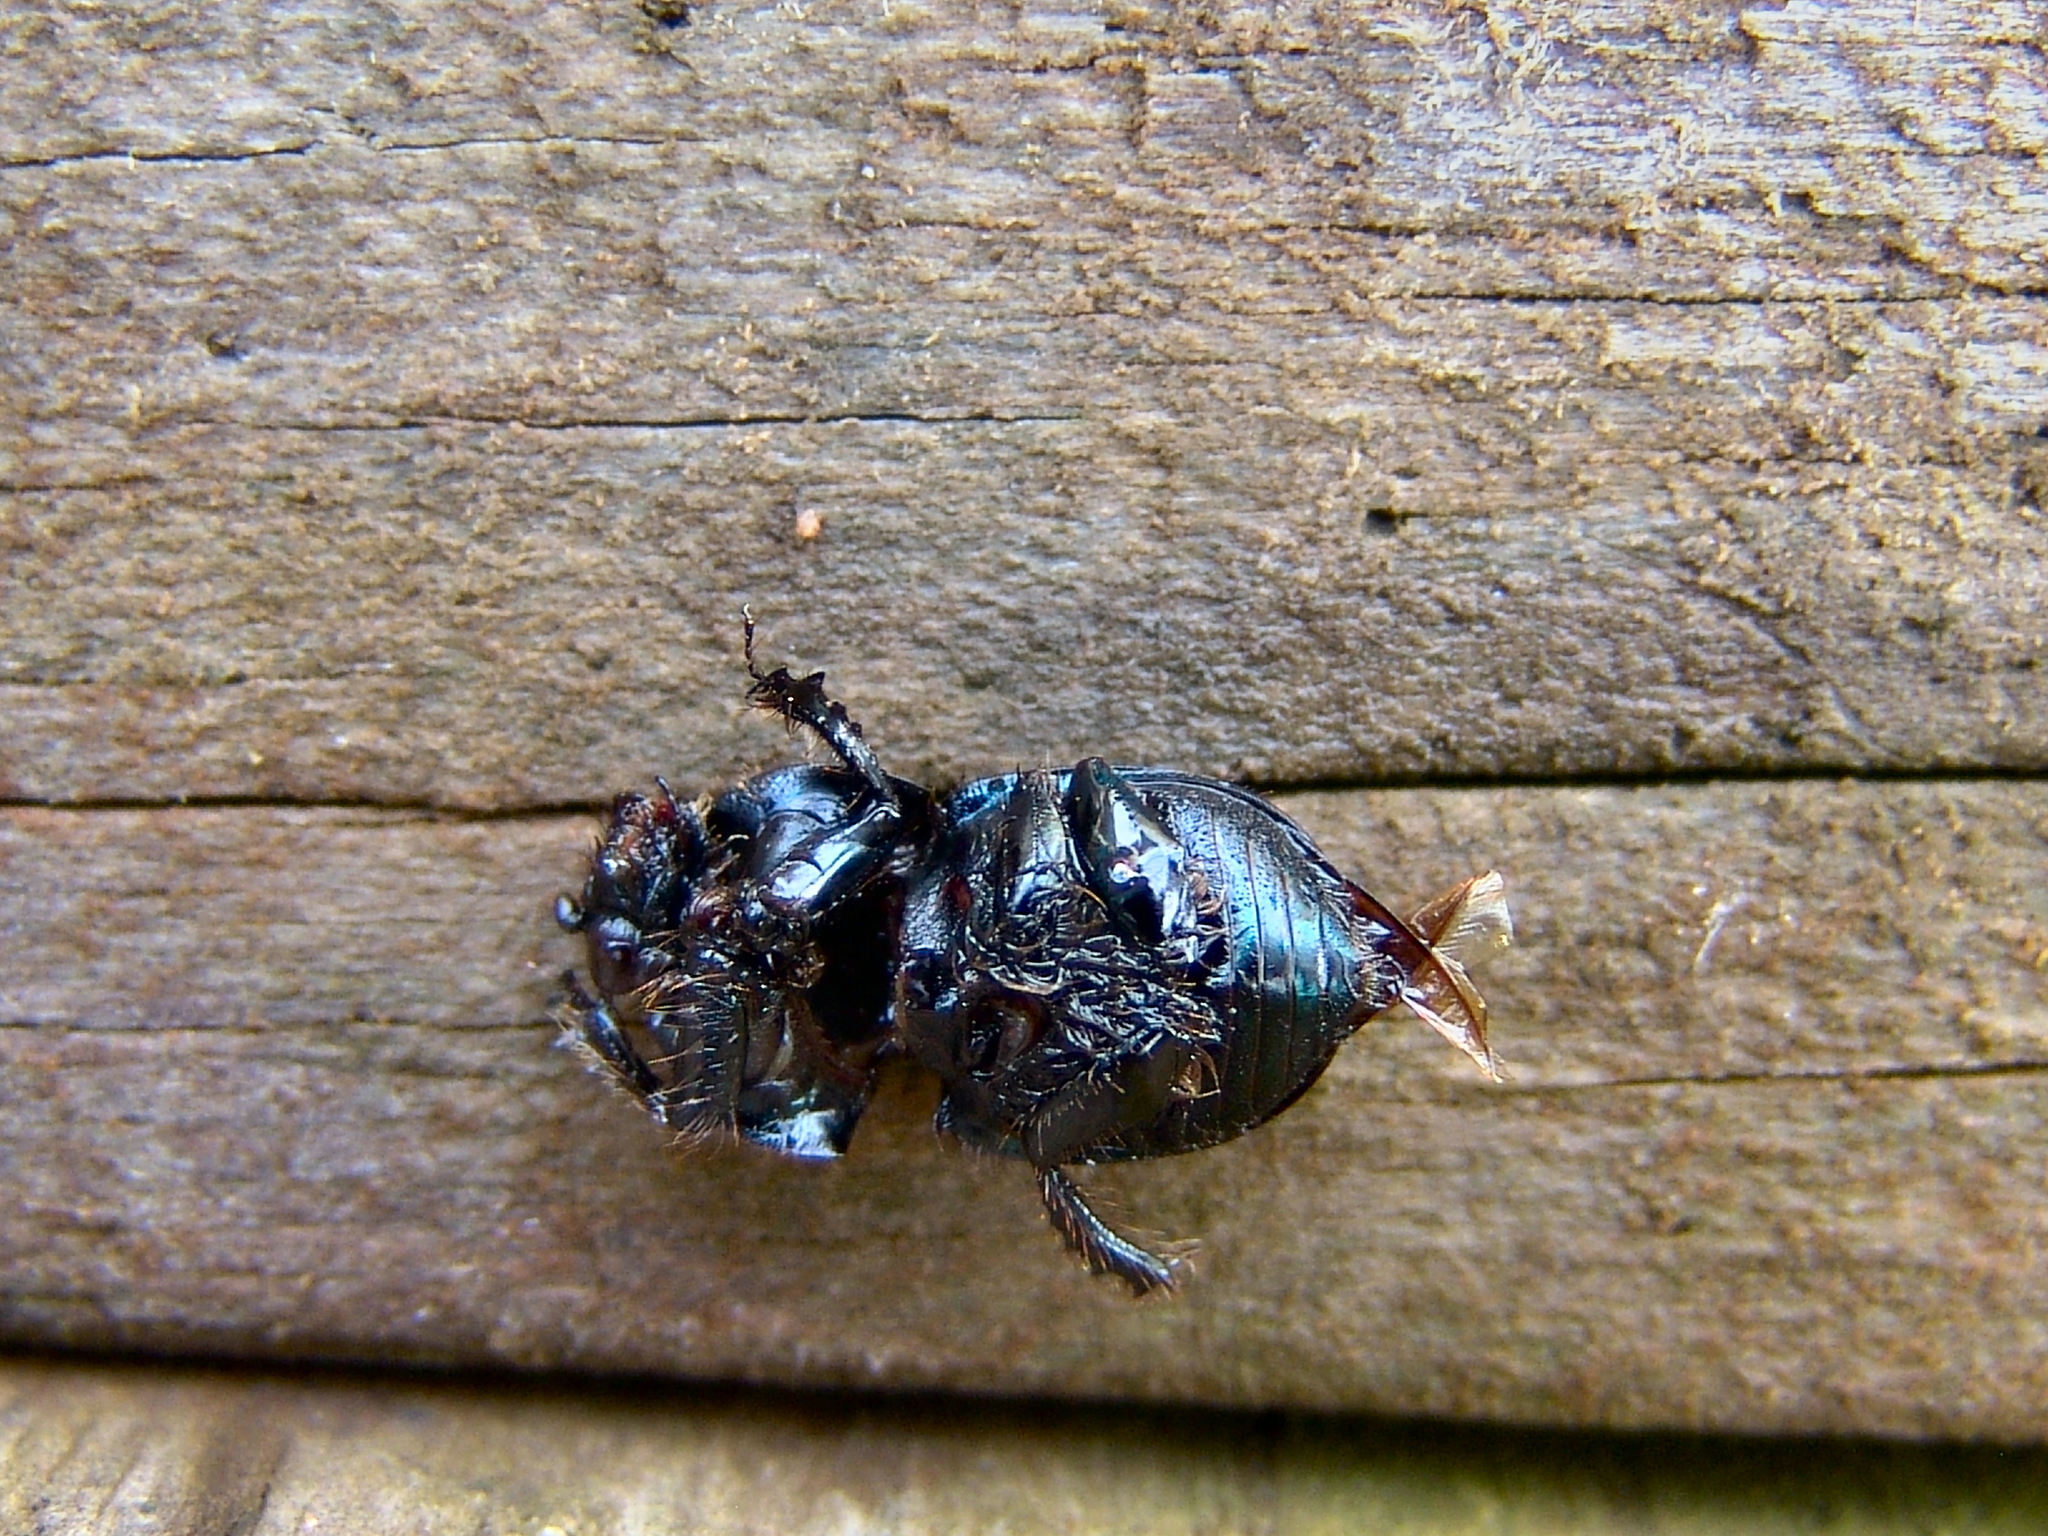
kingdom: Animalia
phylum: Arthropoda
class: Insecta
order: Coleoptera
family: Geotrupidae
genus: Cnemotrupes
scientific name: Cnemotrupes semiopacus
